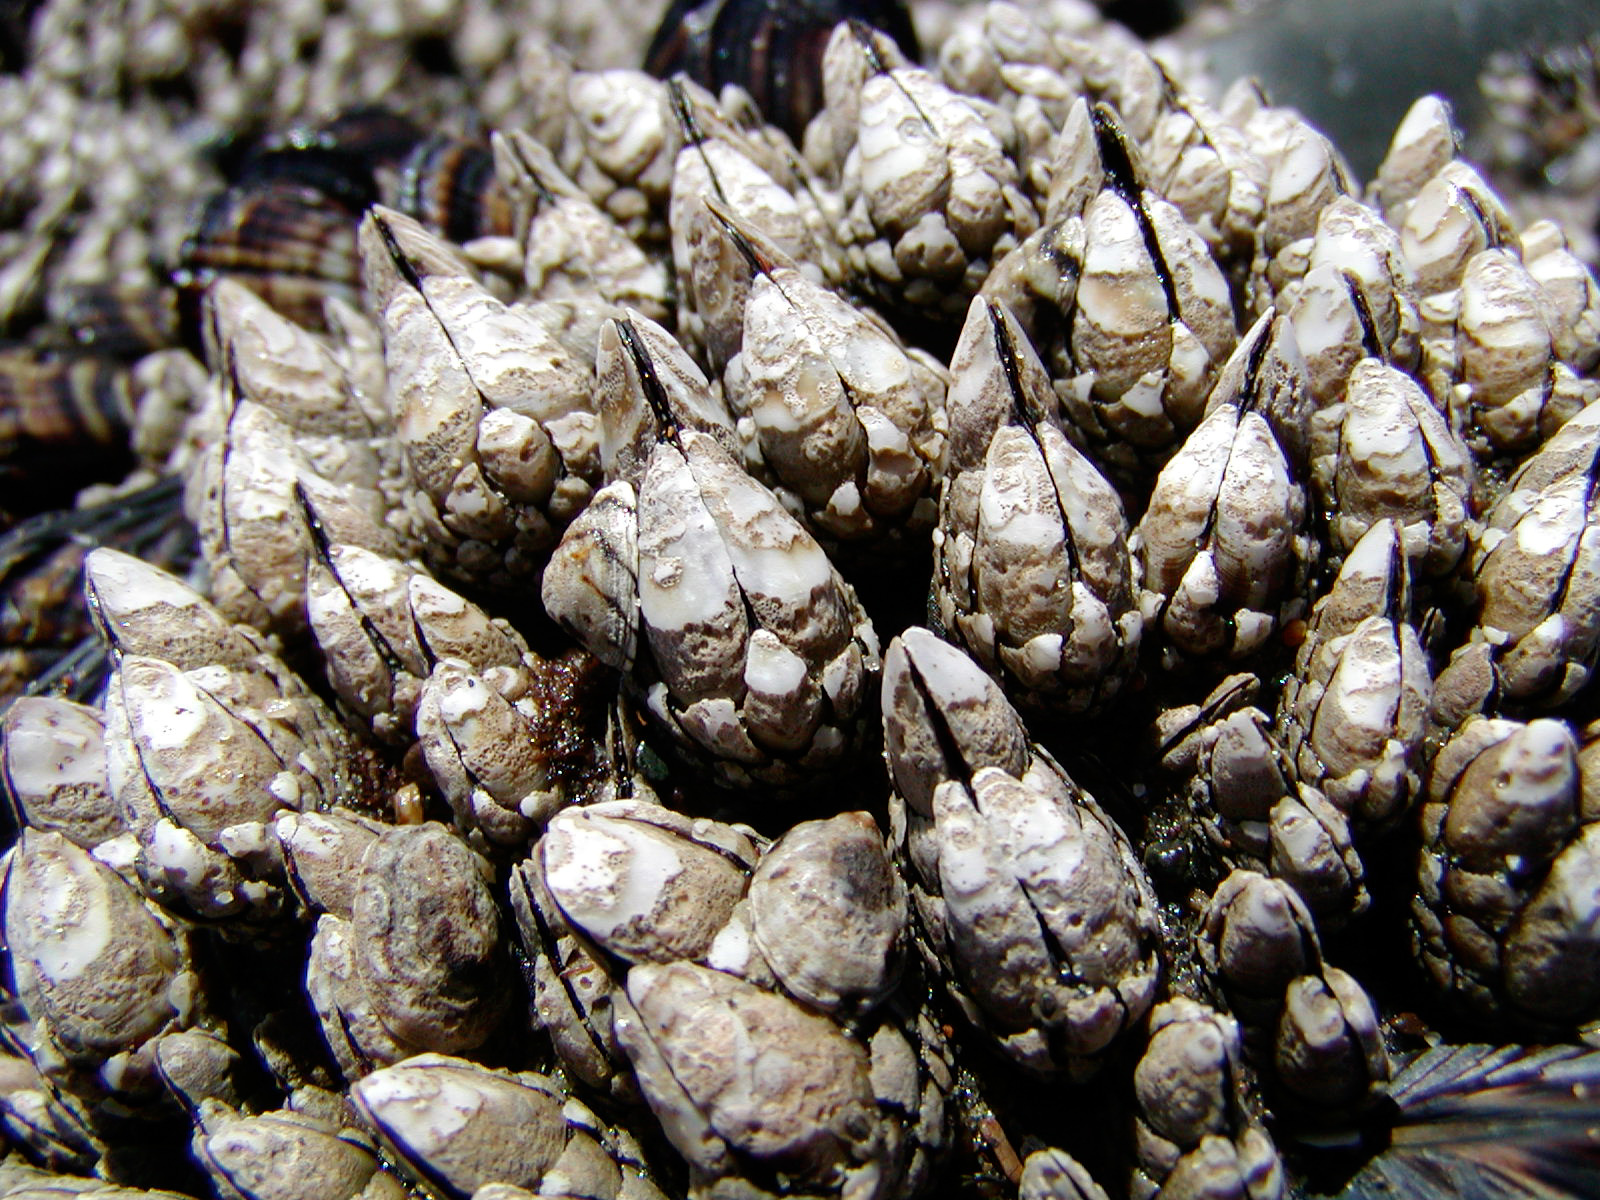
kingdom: Animalia
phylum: Arthropoda
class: Maxillopoda
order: Pedunculata
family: Pollicipedidae
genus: Pollicipes
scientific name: Pollicipes polymerus
